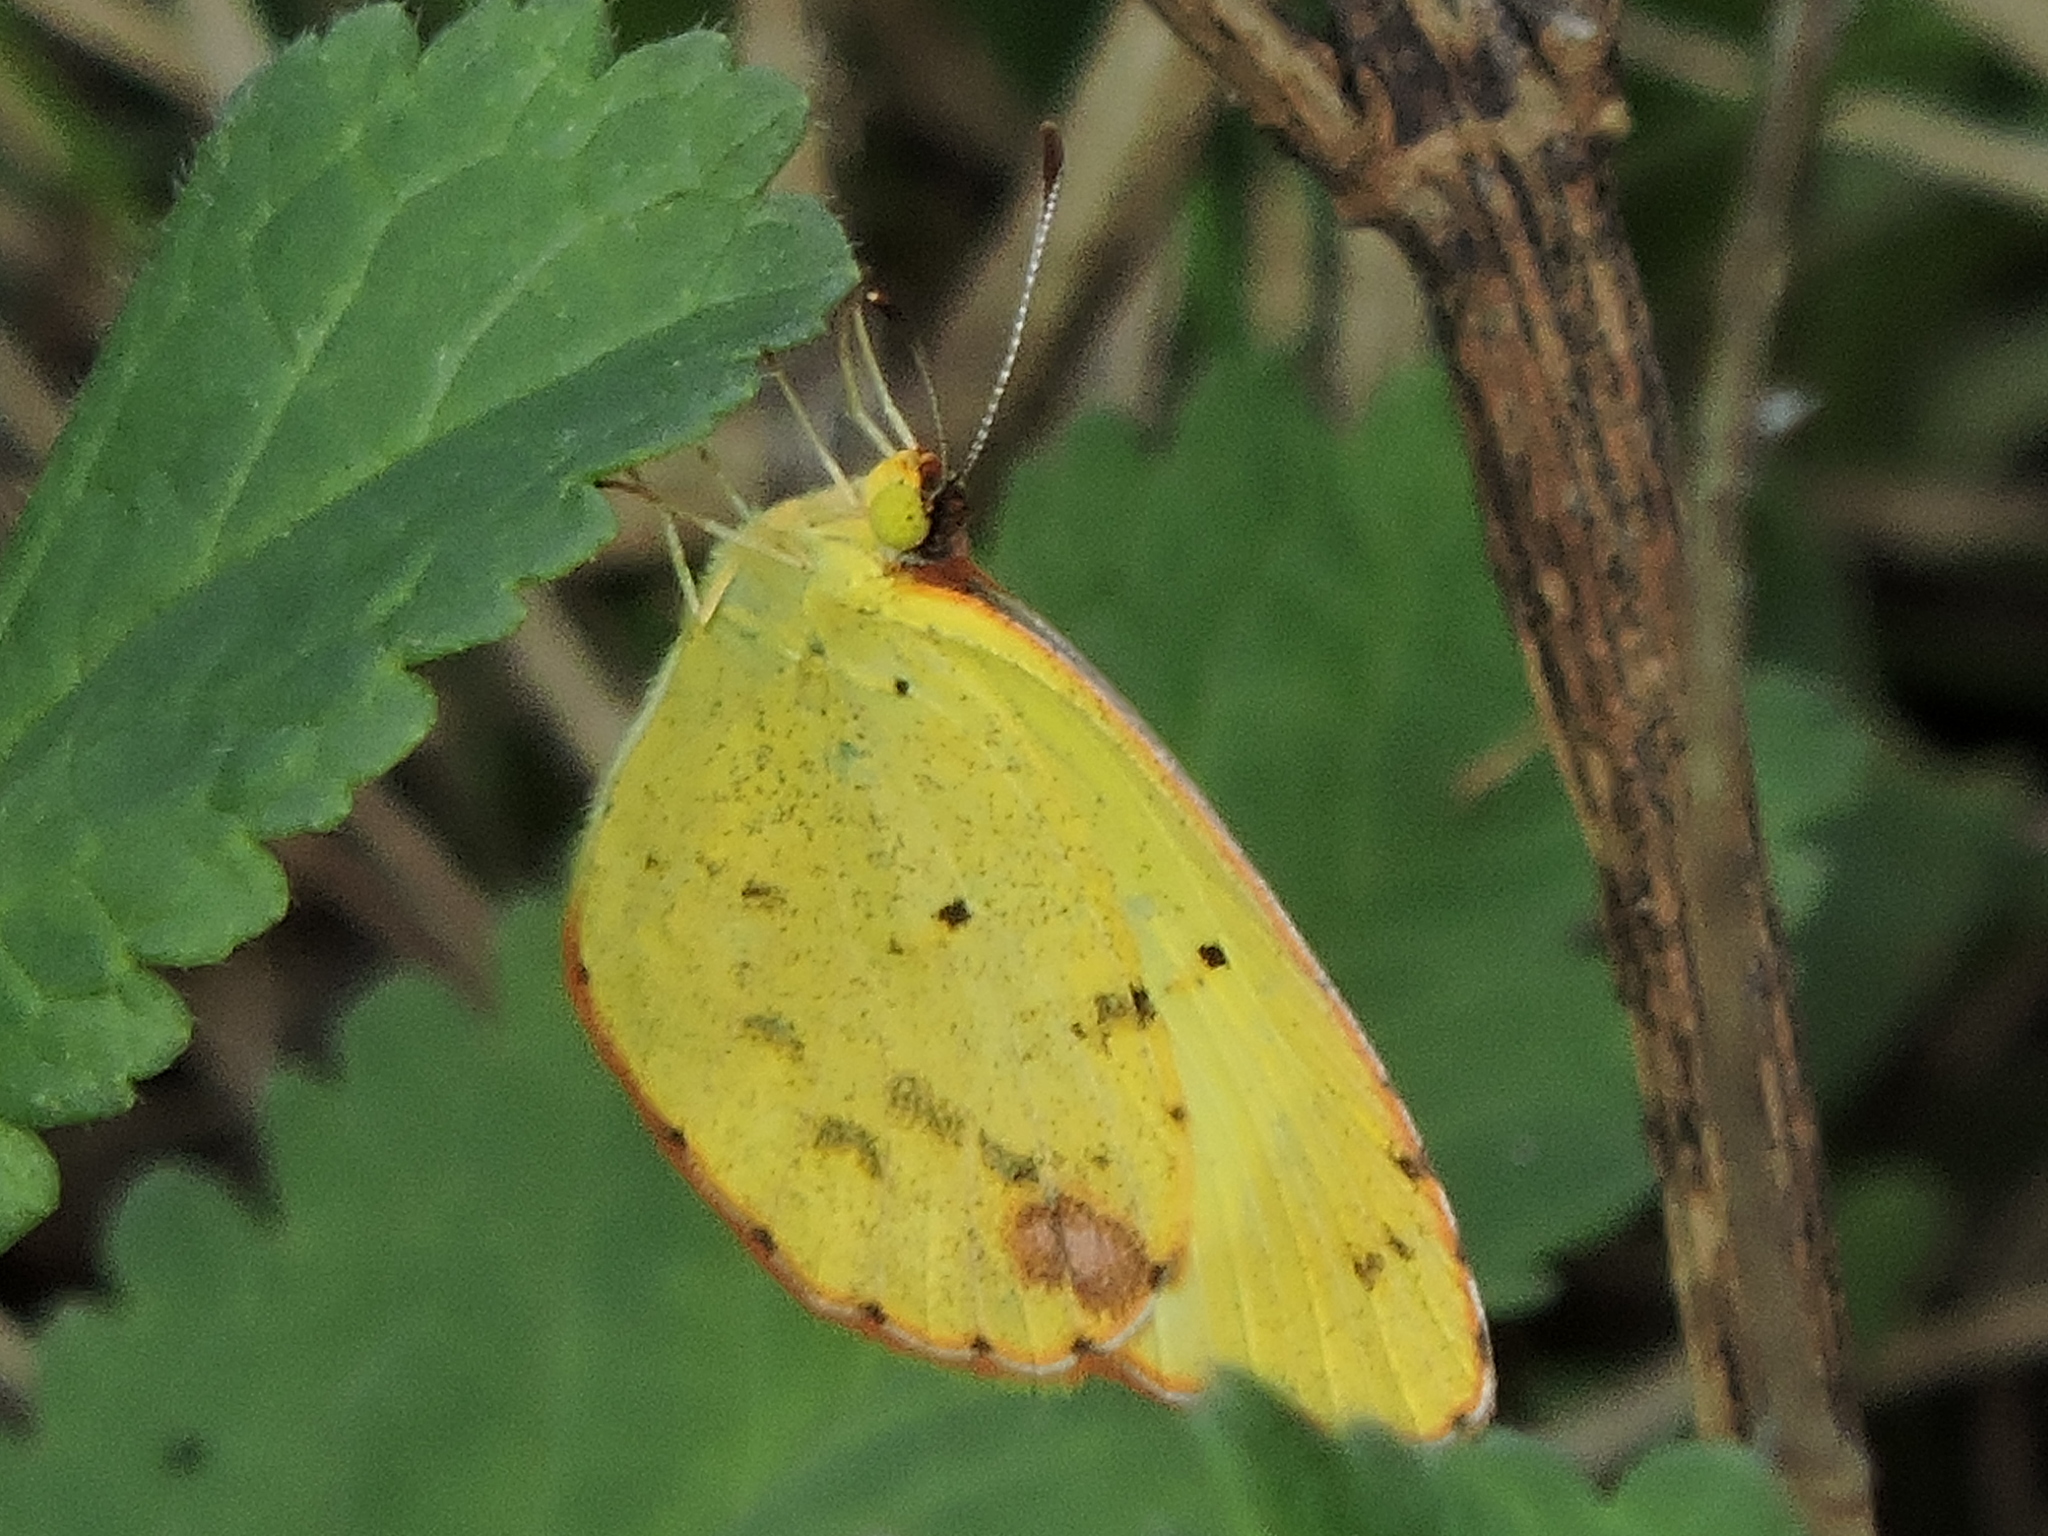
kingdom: Animalia
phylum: Arthropoda
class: Insecta
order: Lepidoptera
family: Pieridae
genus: Pyrisitia
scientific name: Pyrisitia lisa
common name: Little yellow
